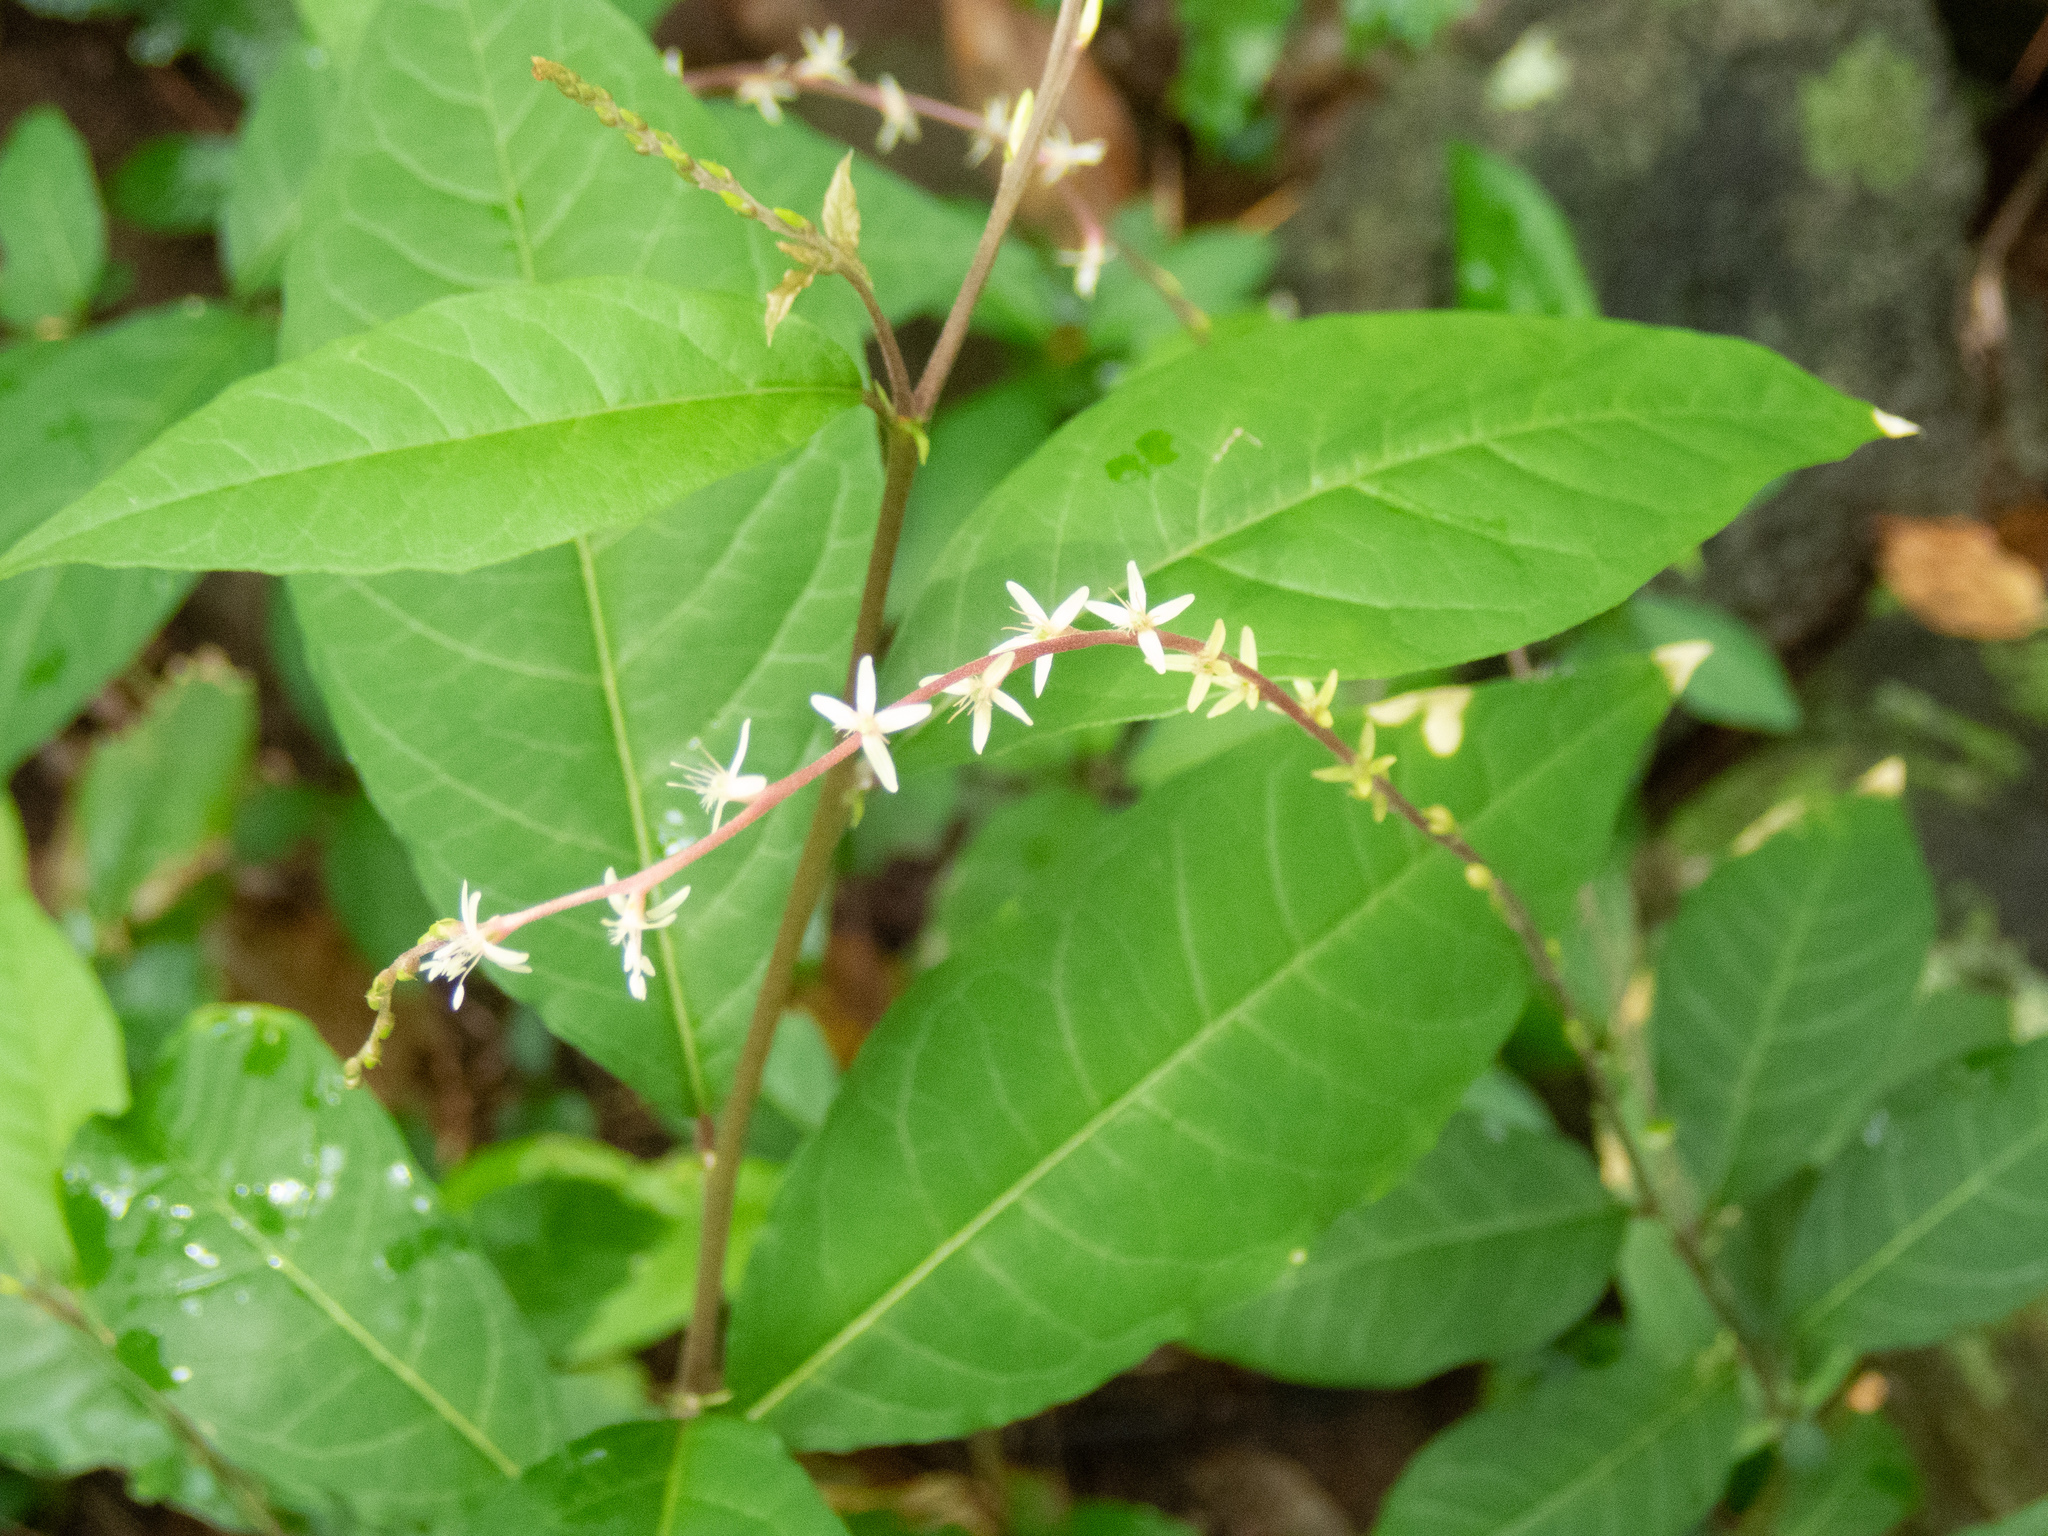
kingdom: Plantae
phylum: Tracheophyta
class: Magnoliopsida
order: Caryophyllales
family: Phytolaccaceae
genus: Petiveria
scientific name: Petiveria alliacea
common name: Garlicweed
